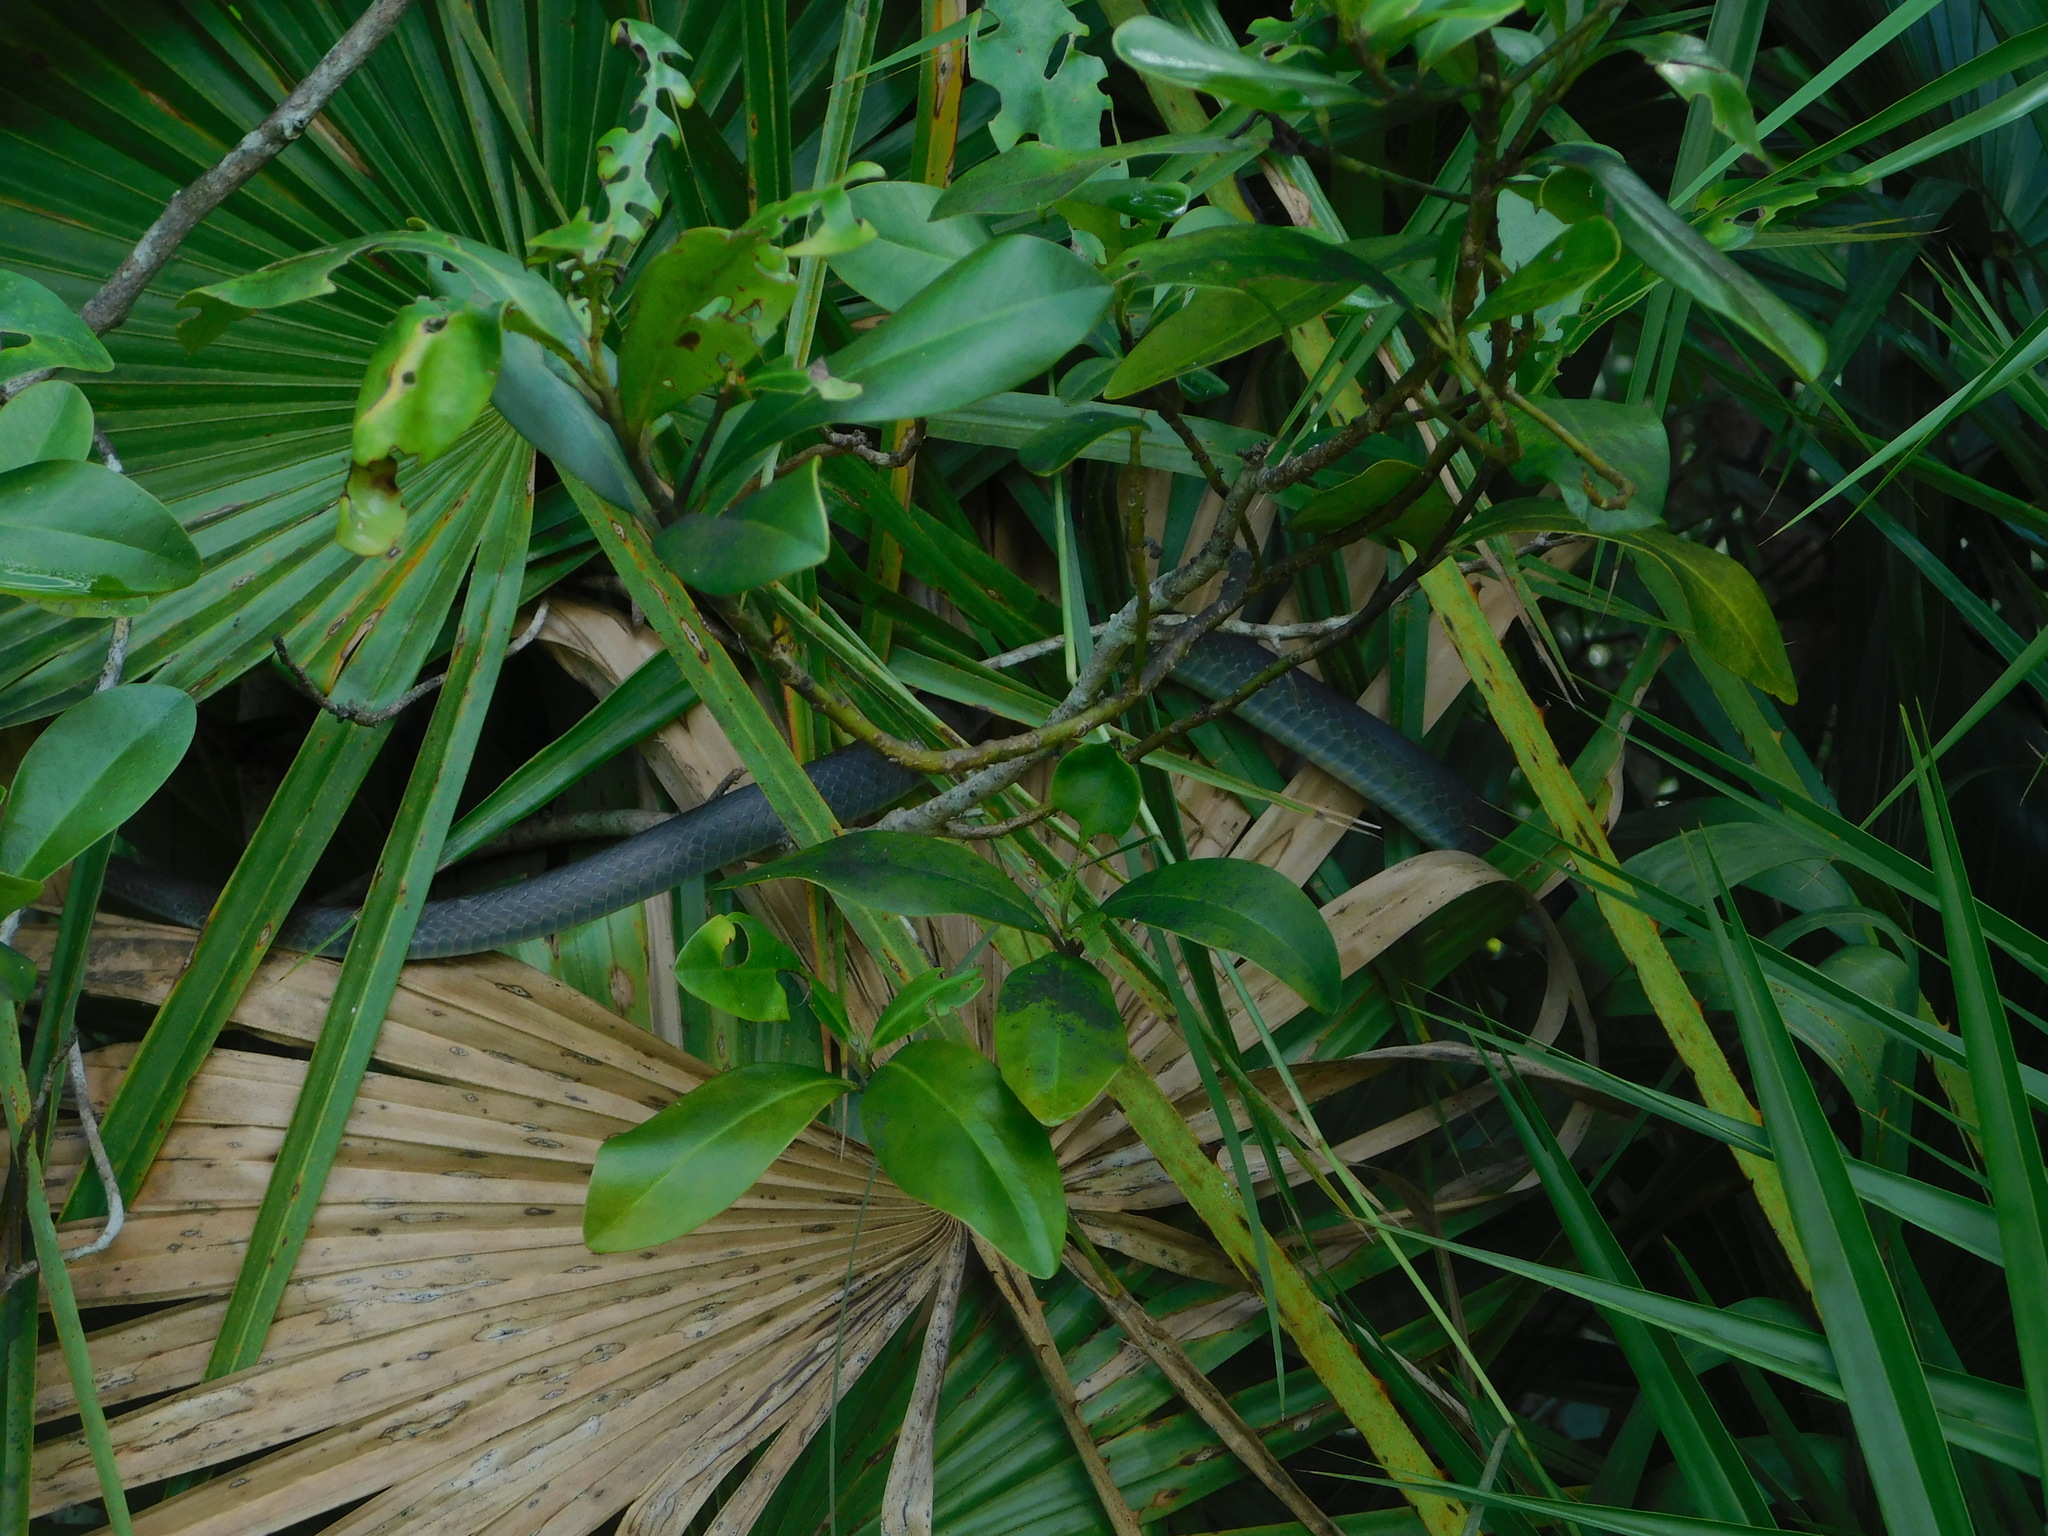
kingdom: Animalia
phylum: Chordata
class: Squamata
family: Colubridae
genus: Coluber
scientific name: Coluber constrictor
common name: Eastern racer
